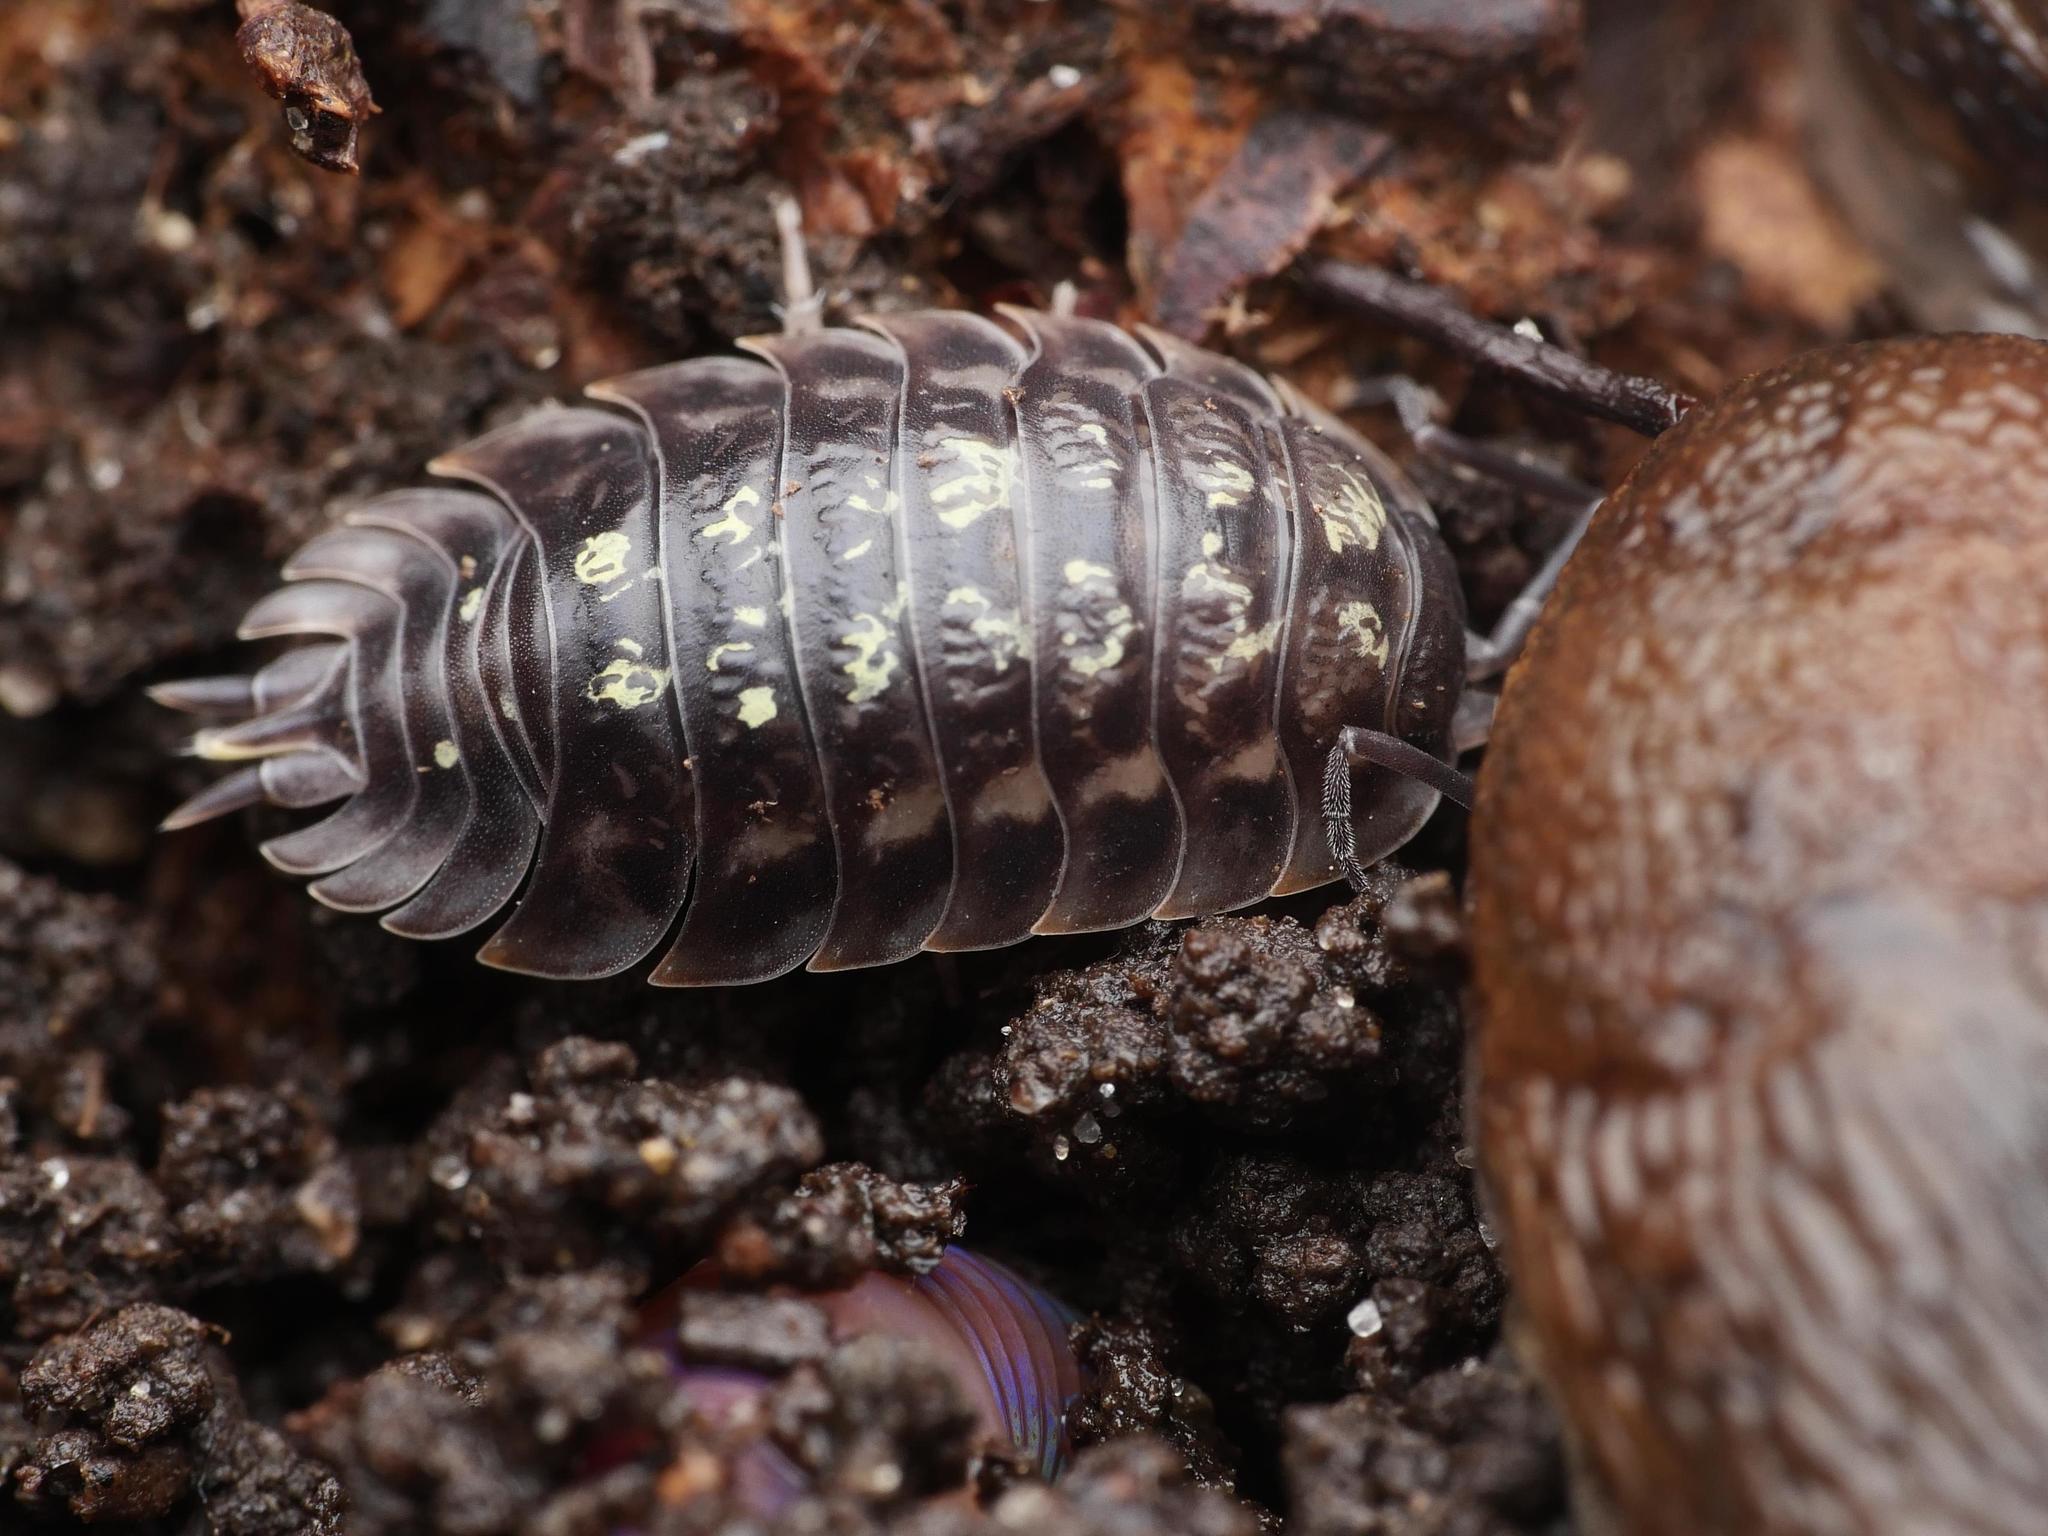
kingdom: Animalia
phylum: Arthropoda
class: Malacostraca
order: Isopoda
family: Oniscidae
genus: Oniscus
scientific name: Oniscus asellus
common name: Common shiny woodlouse
